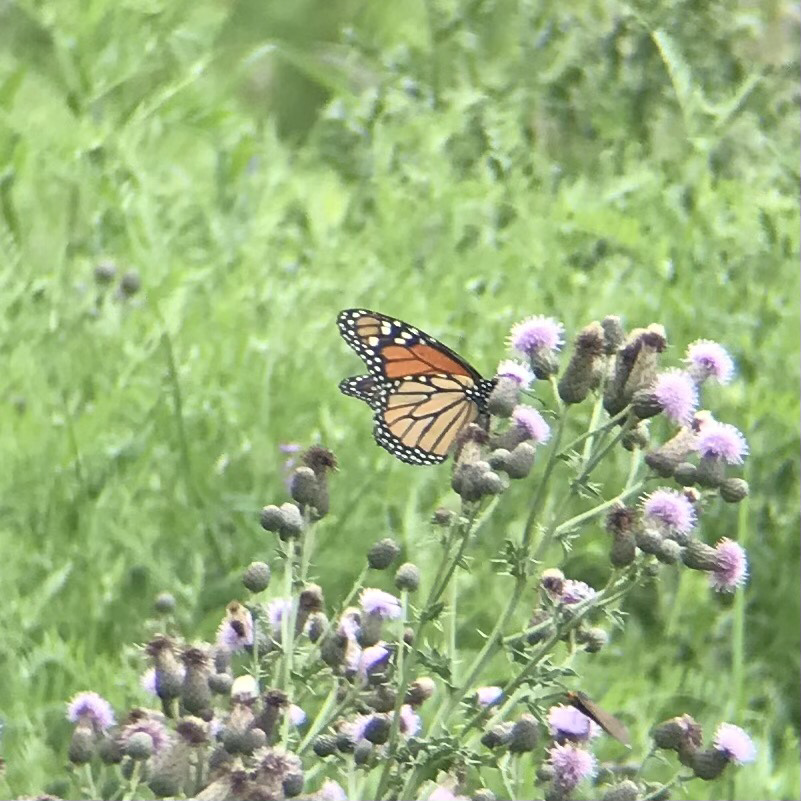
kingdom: Animalia
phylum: Arthropoda
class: Insecta
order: Lepidoptera
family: Nymphalidae
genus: Danaus
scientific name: Danaus plexippus
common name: Monarch
